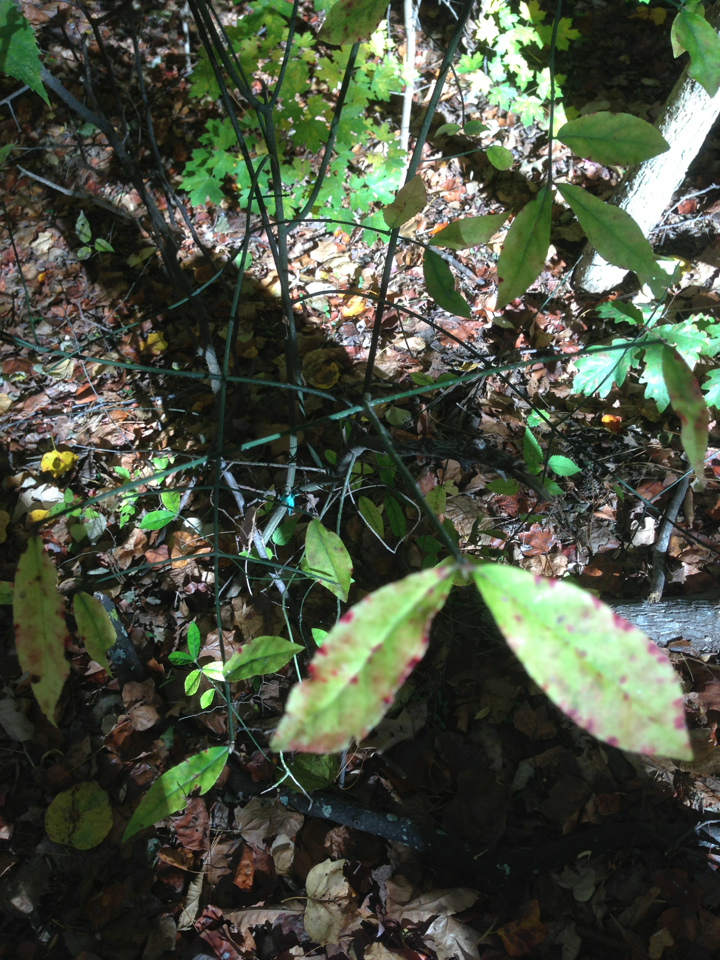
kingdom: Plantae
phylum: Tracheophyta
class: Magnoliopsida
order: Celastrales
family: Celastraceae
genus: Euonymus
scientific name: Euonymus americanus
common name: Bursting-heart
